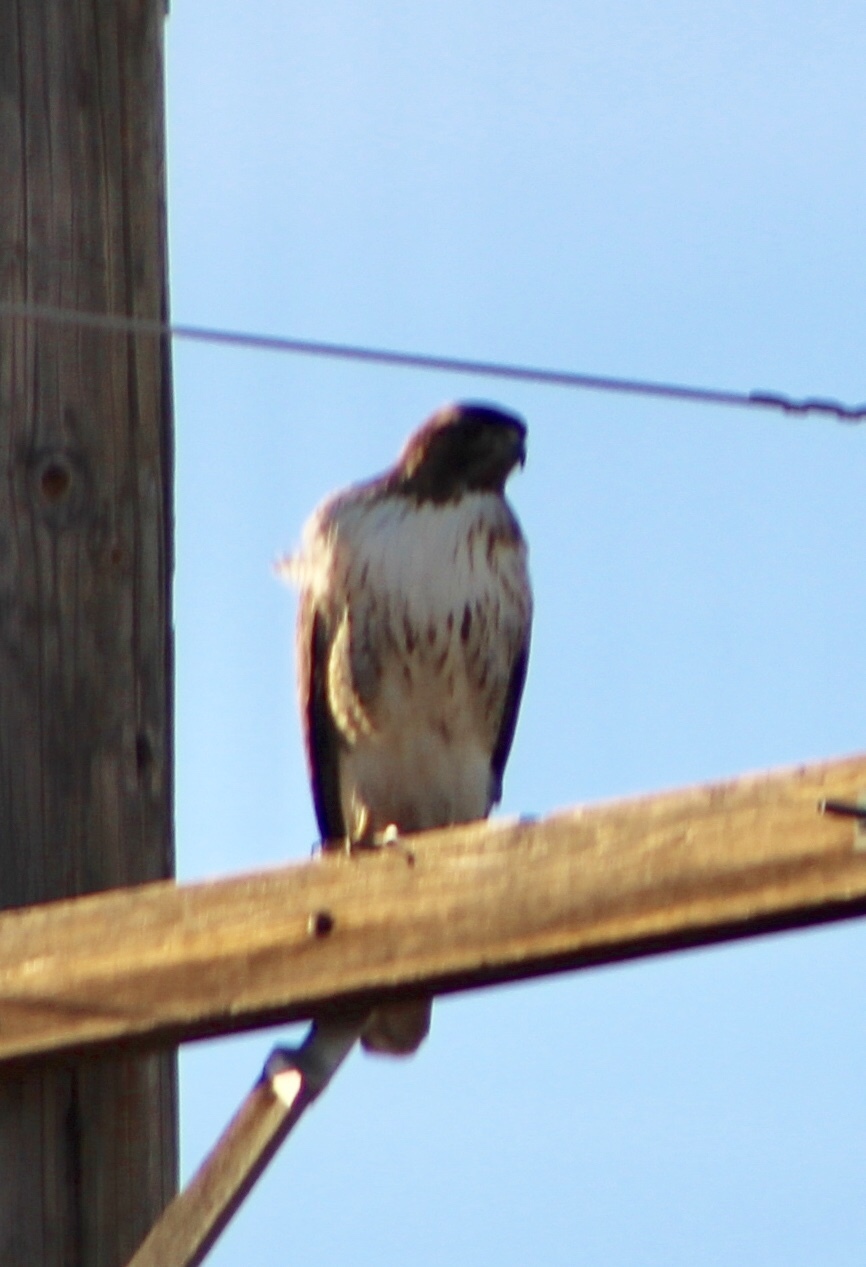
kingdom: Animalia
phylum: Chordata
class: Aves
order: Accipitriformes
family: Accipitridae
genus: Buteo
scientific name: Buteo jamaicensis
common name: Red-tailed hawk
